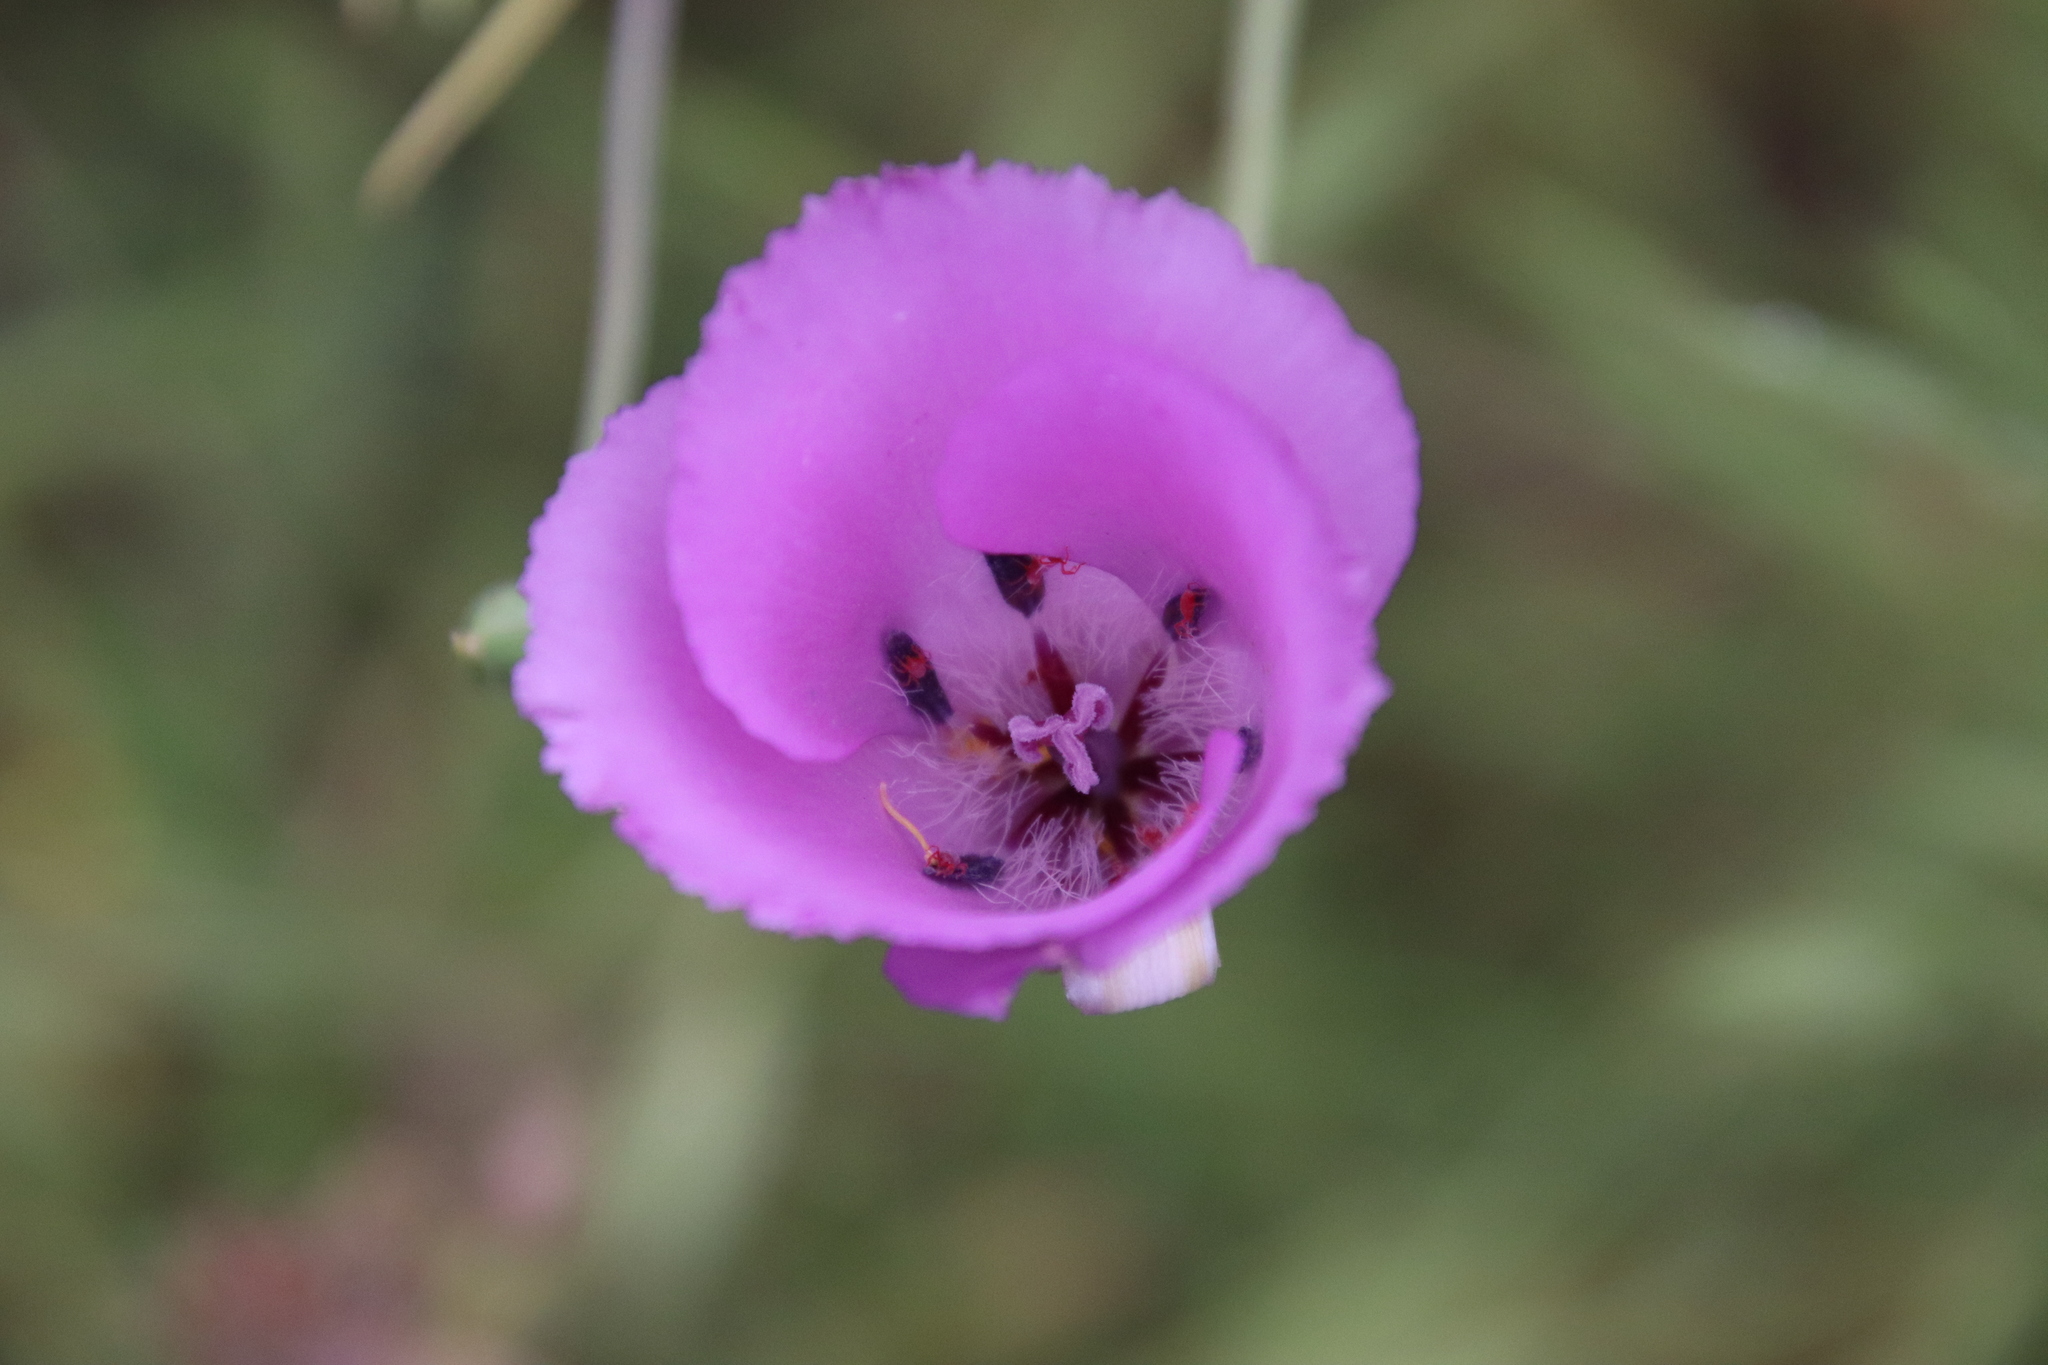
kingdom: Plantae
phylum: Tracheophyta
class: Liliopsida
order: Liliales
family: Liliaceae
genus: Calochortus
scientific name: Calochortus splendens
